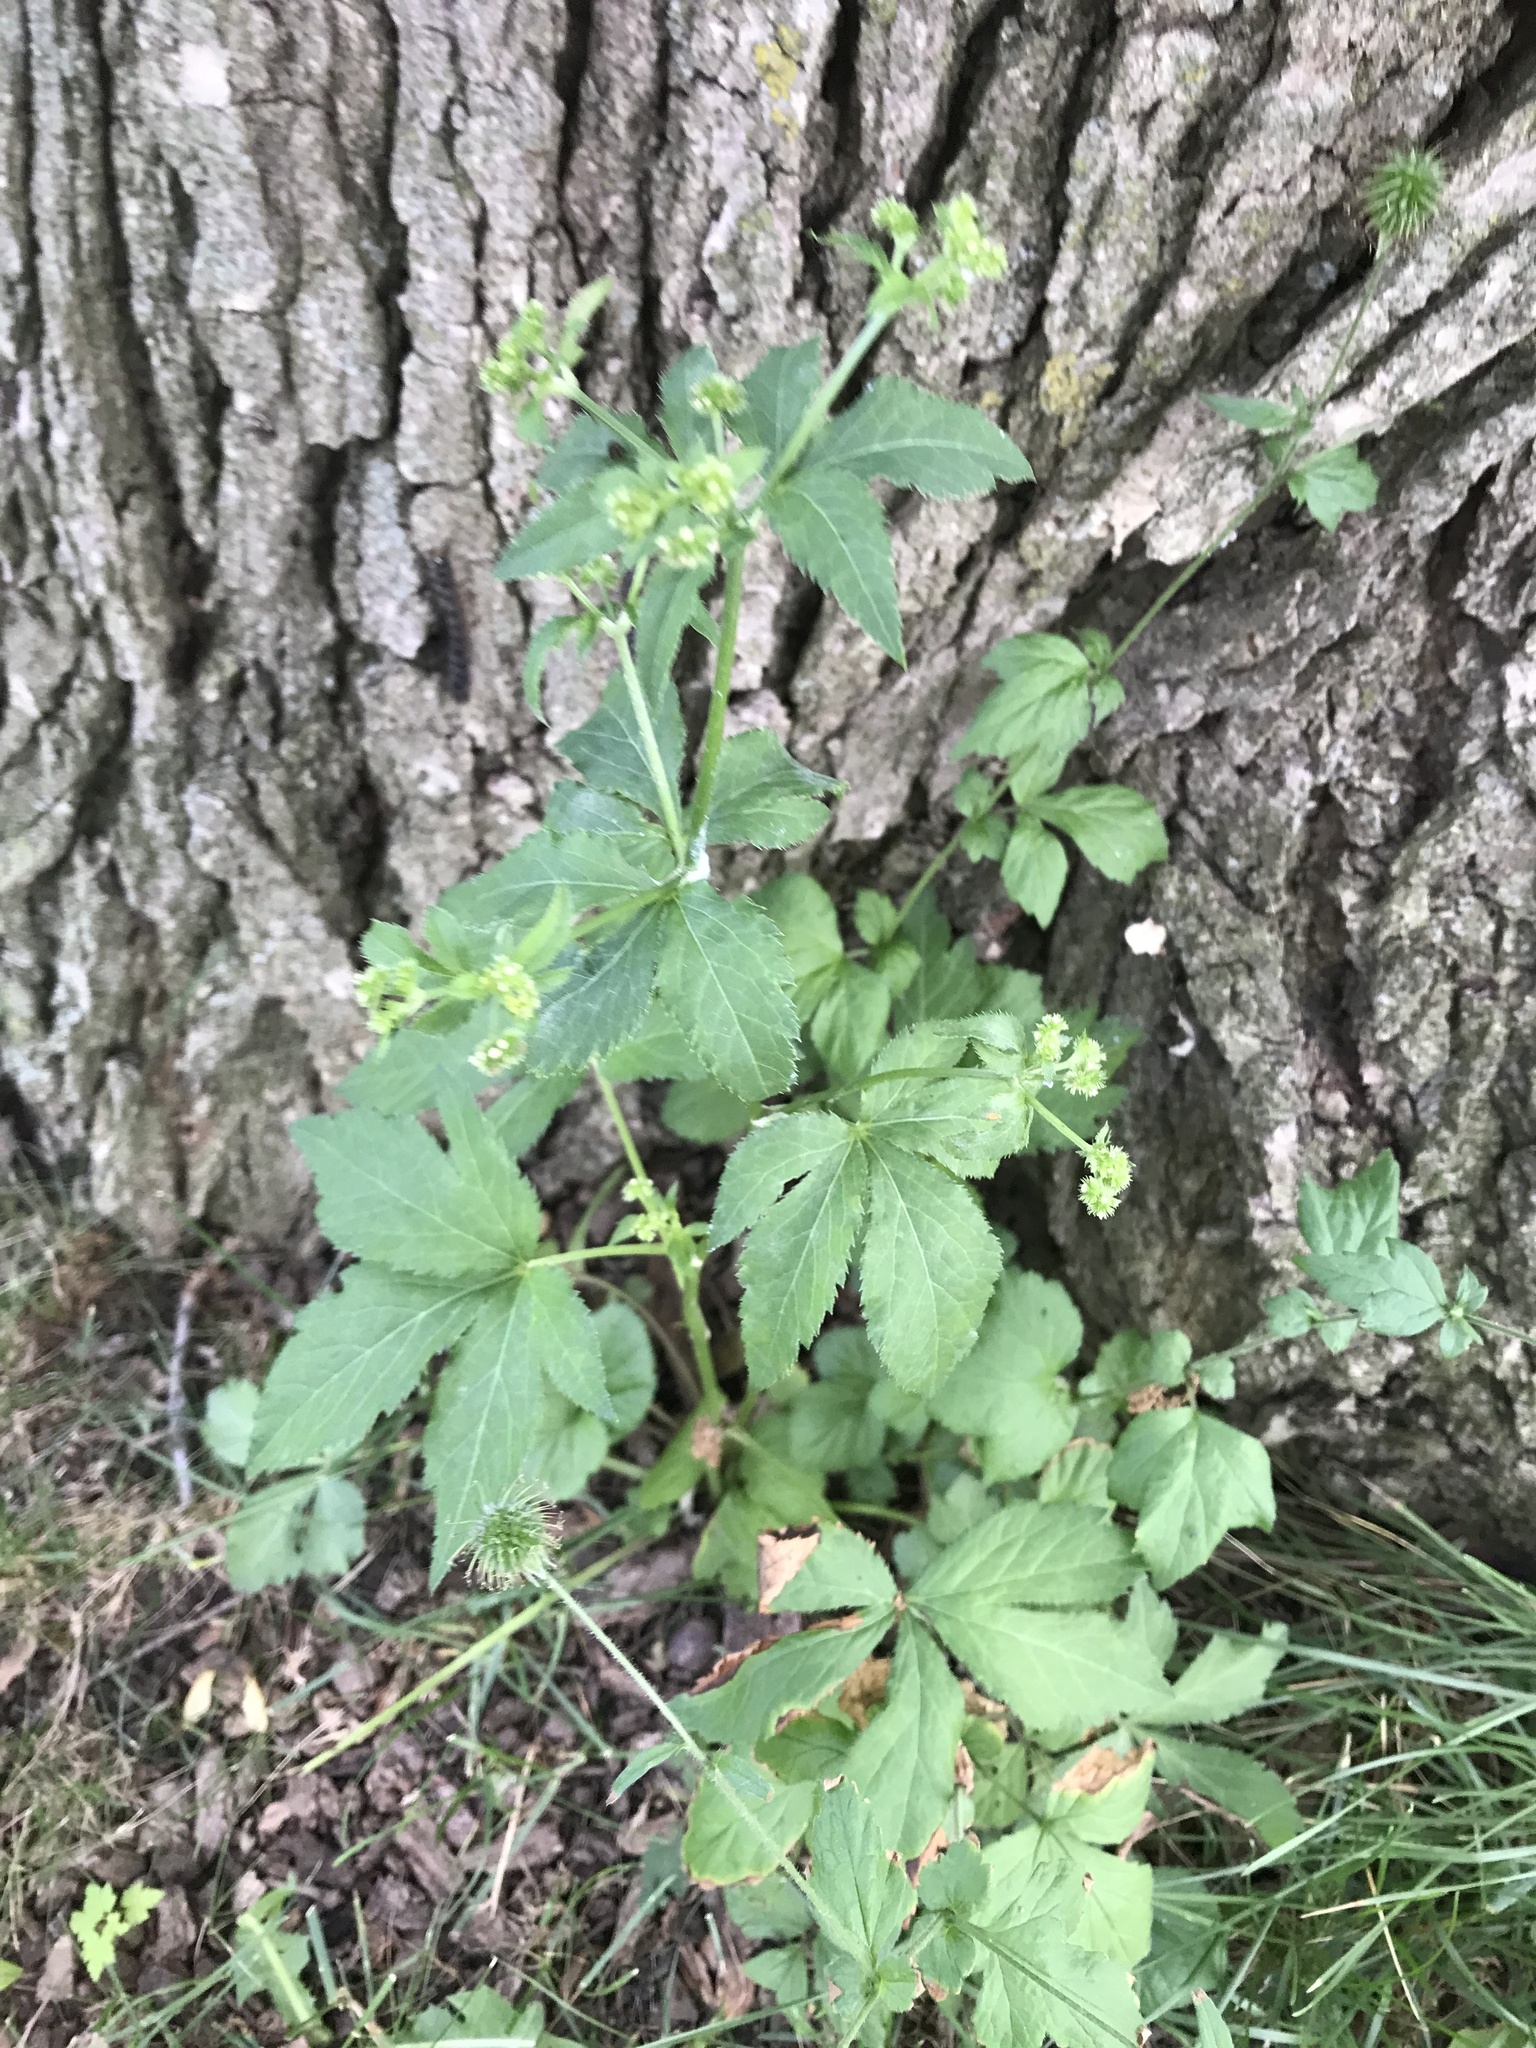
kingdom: Plantae
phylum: Tracheophyta
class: Magnoliopsida
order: Apiales
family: Apiaceae
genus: Sanicula
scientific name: Sanicula canadensis
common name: Canada sanicle
